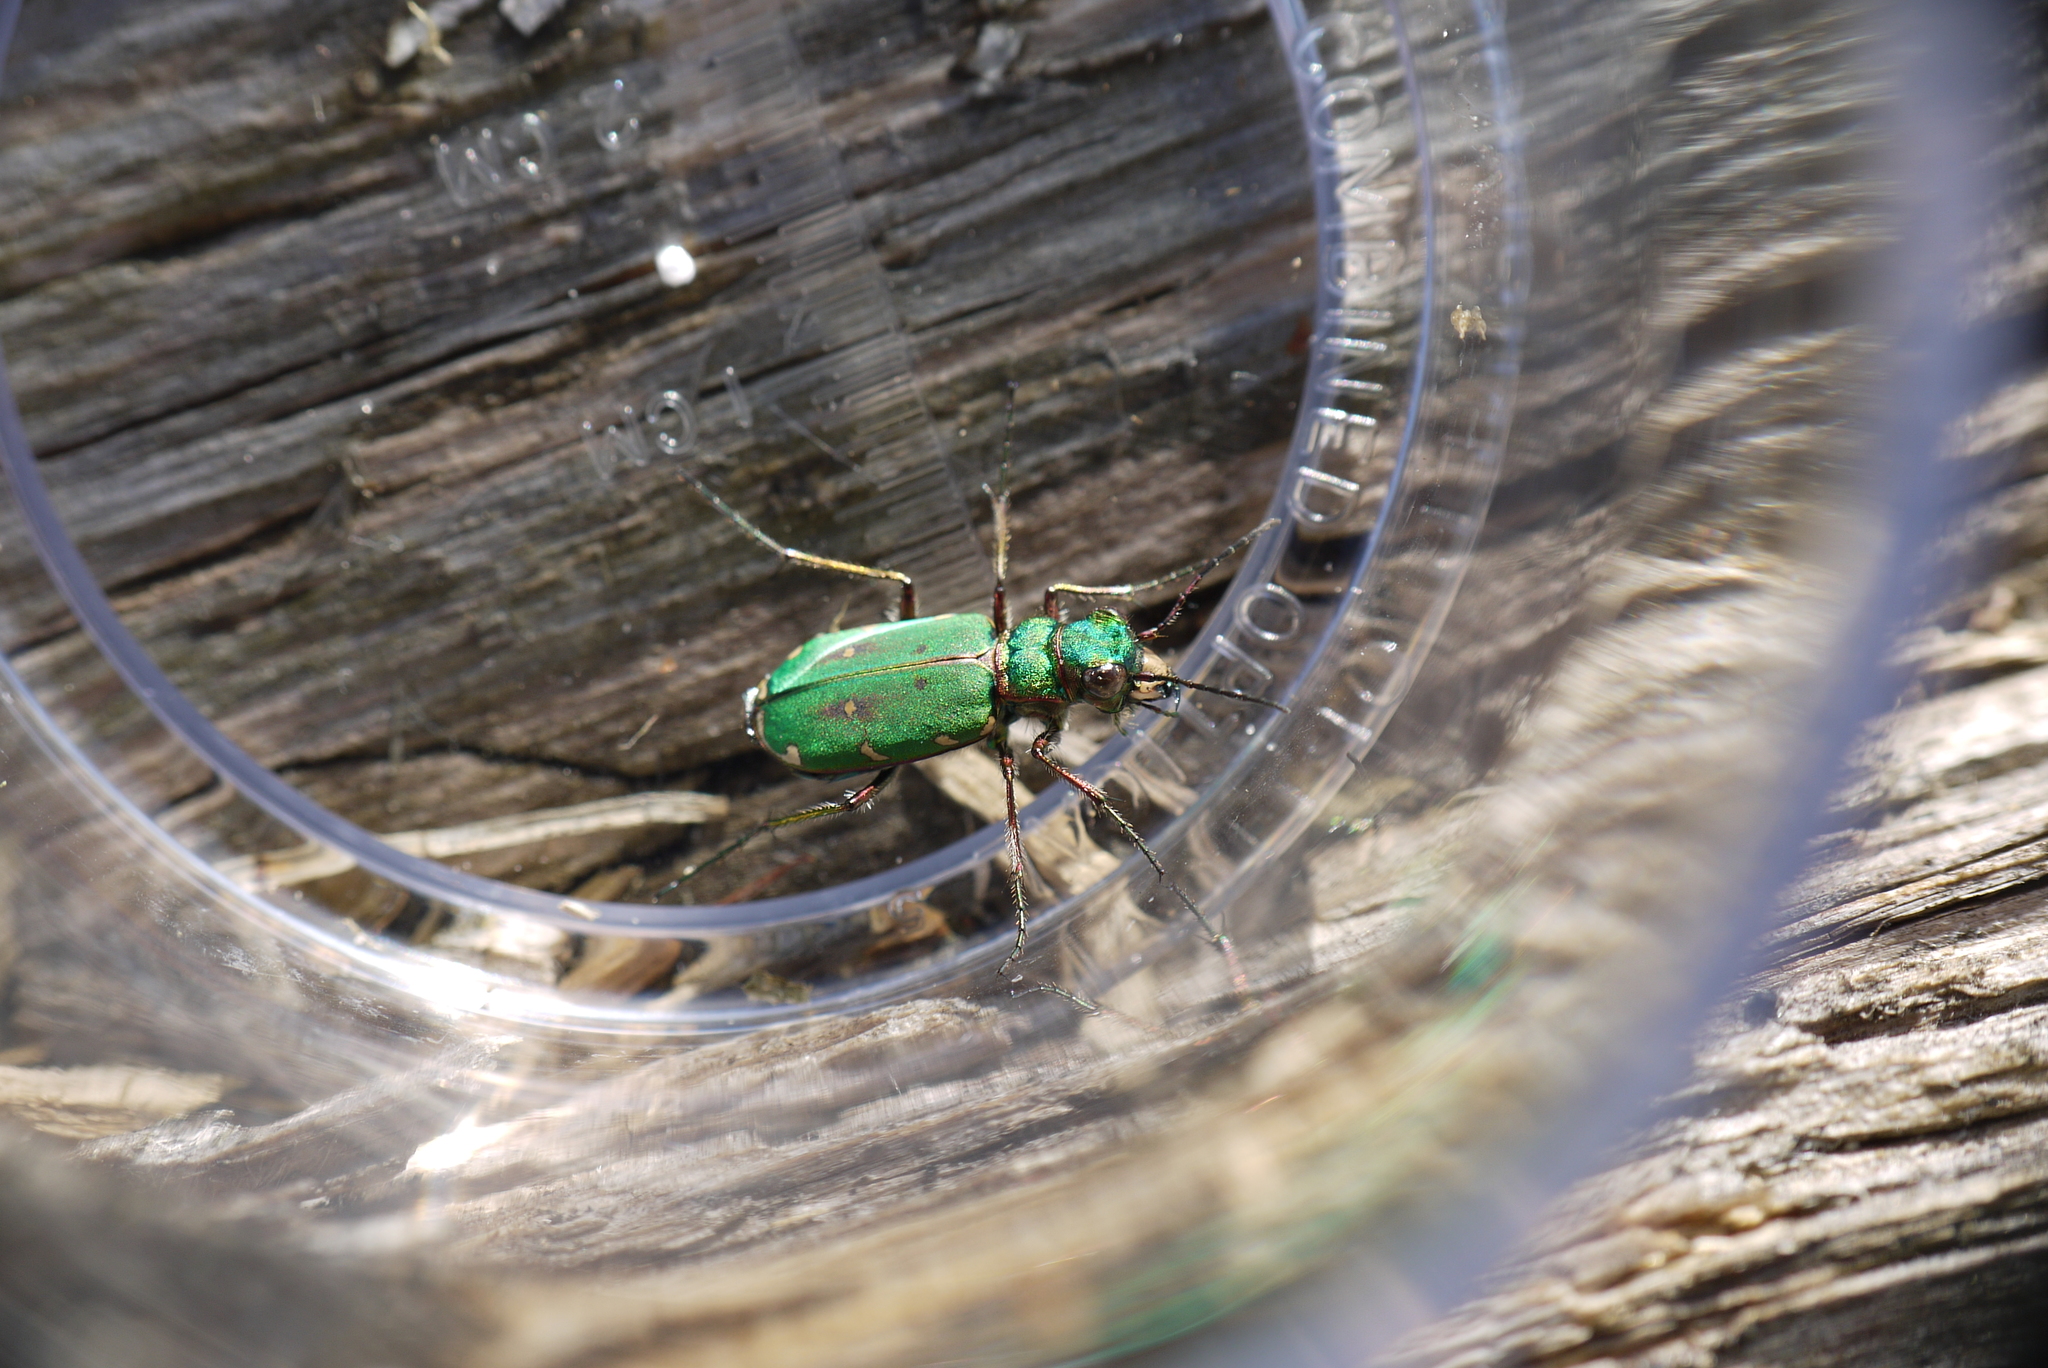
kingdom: Animalia
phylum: Arthropoda
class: Insecta
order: Coleoptera
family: Carabidae
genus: Cicindela
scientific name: Cicindela campestris
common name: Common tiger beetle
